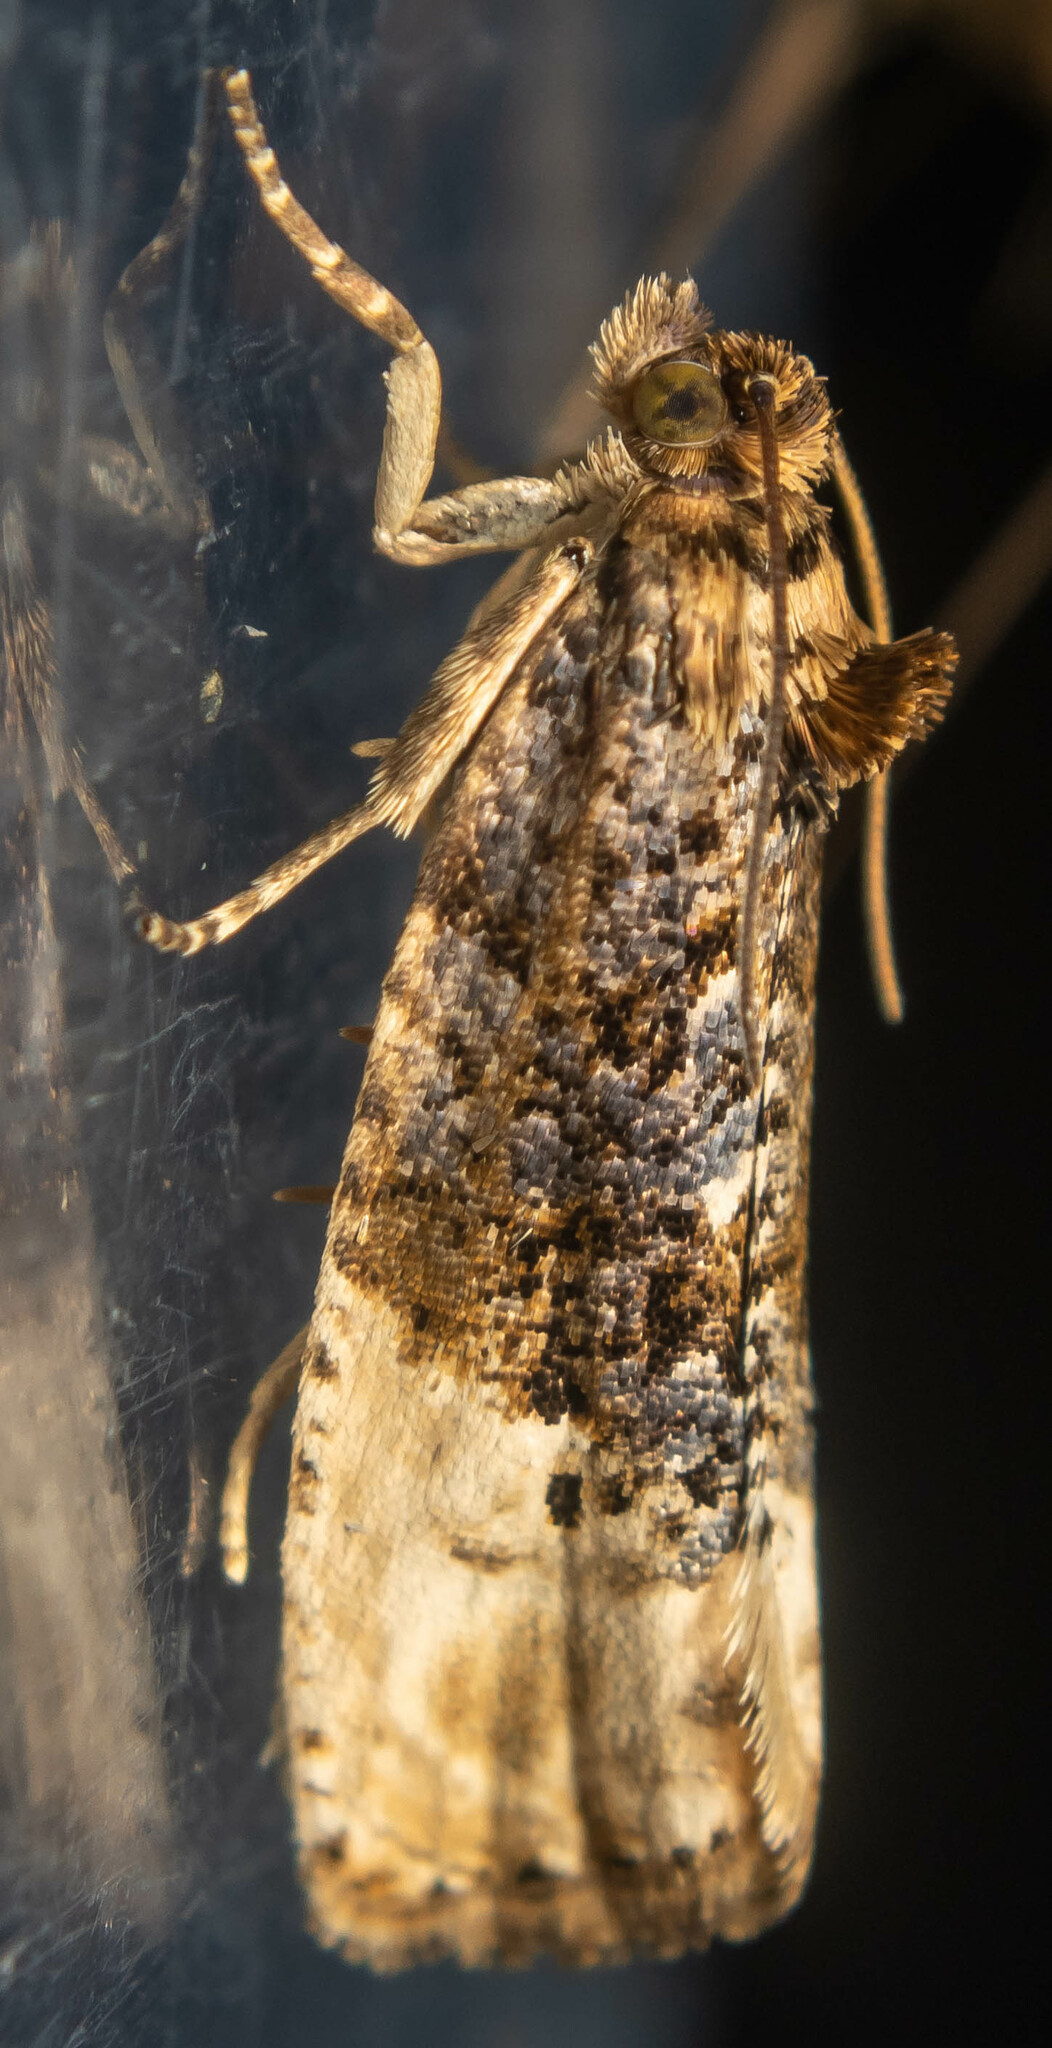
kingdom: Animalia
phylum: Arthropoda
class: Insecta
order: Lepidoptera
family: Tortricidae
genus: Hedya
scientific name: Hedya nubiferana
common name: Marbled orchard tortrix
